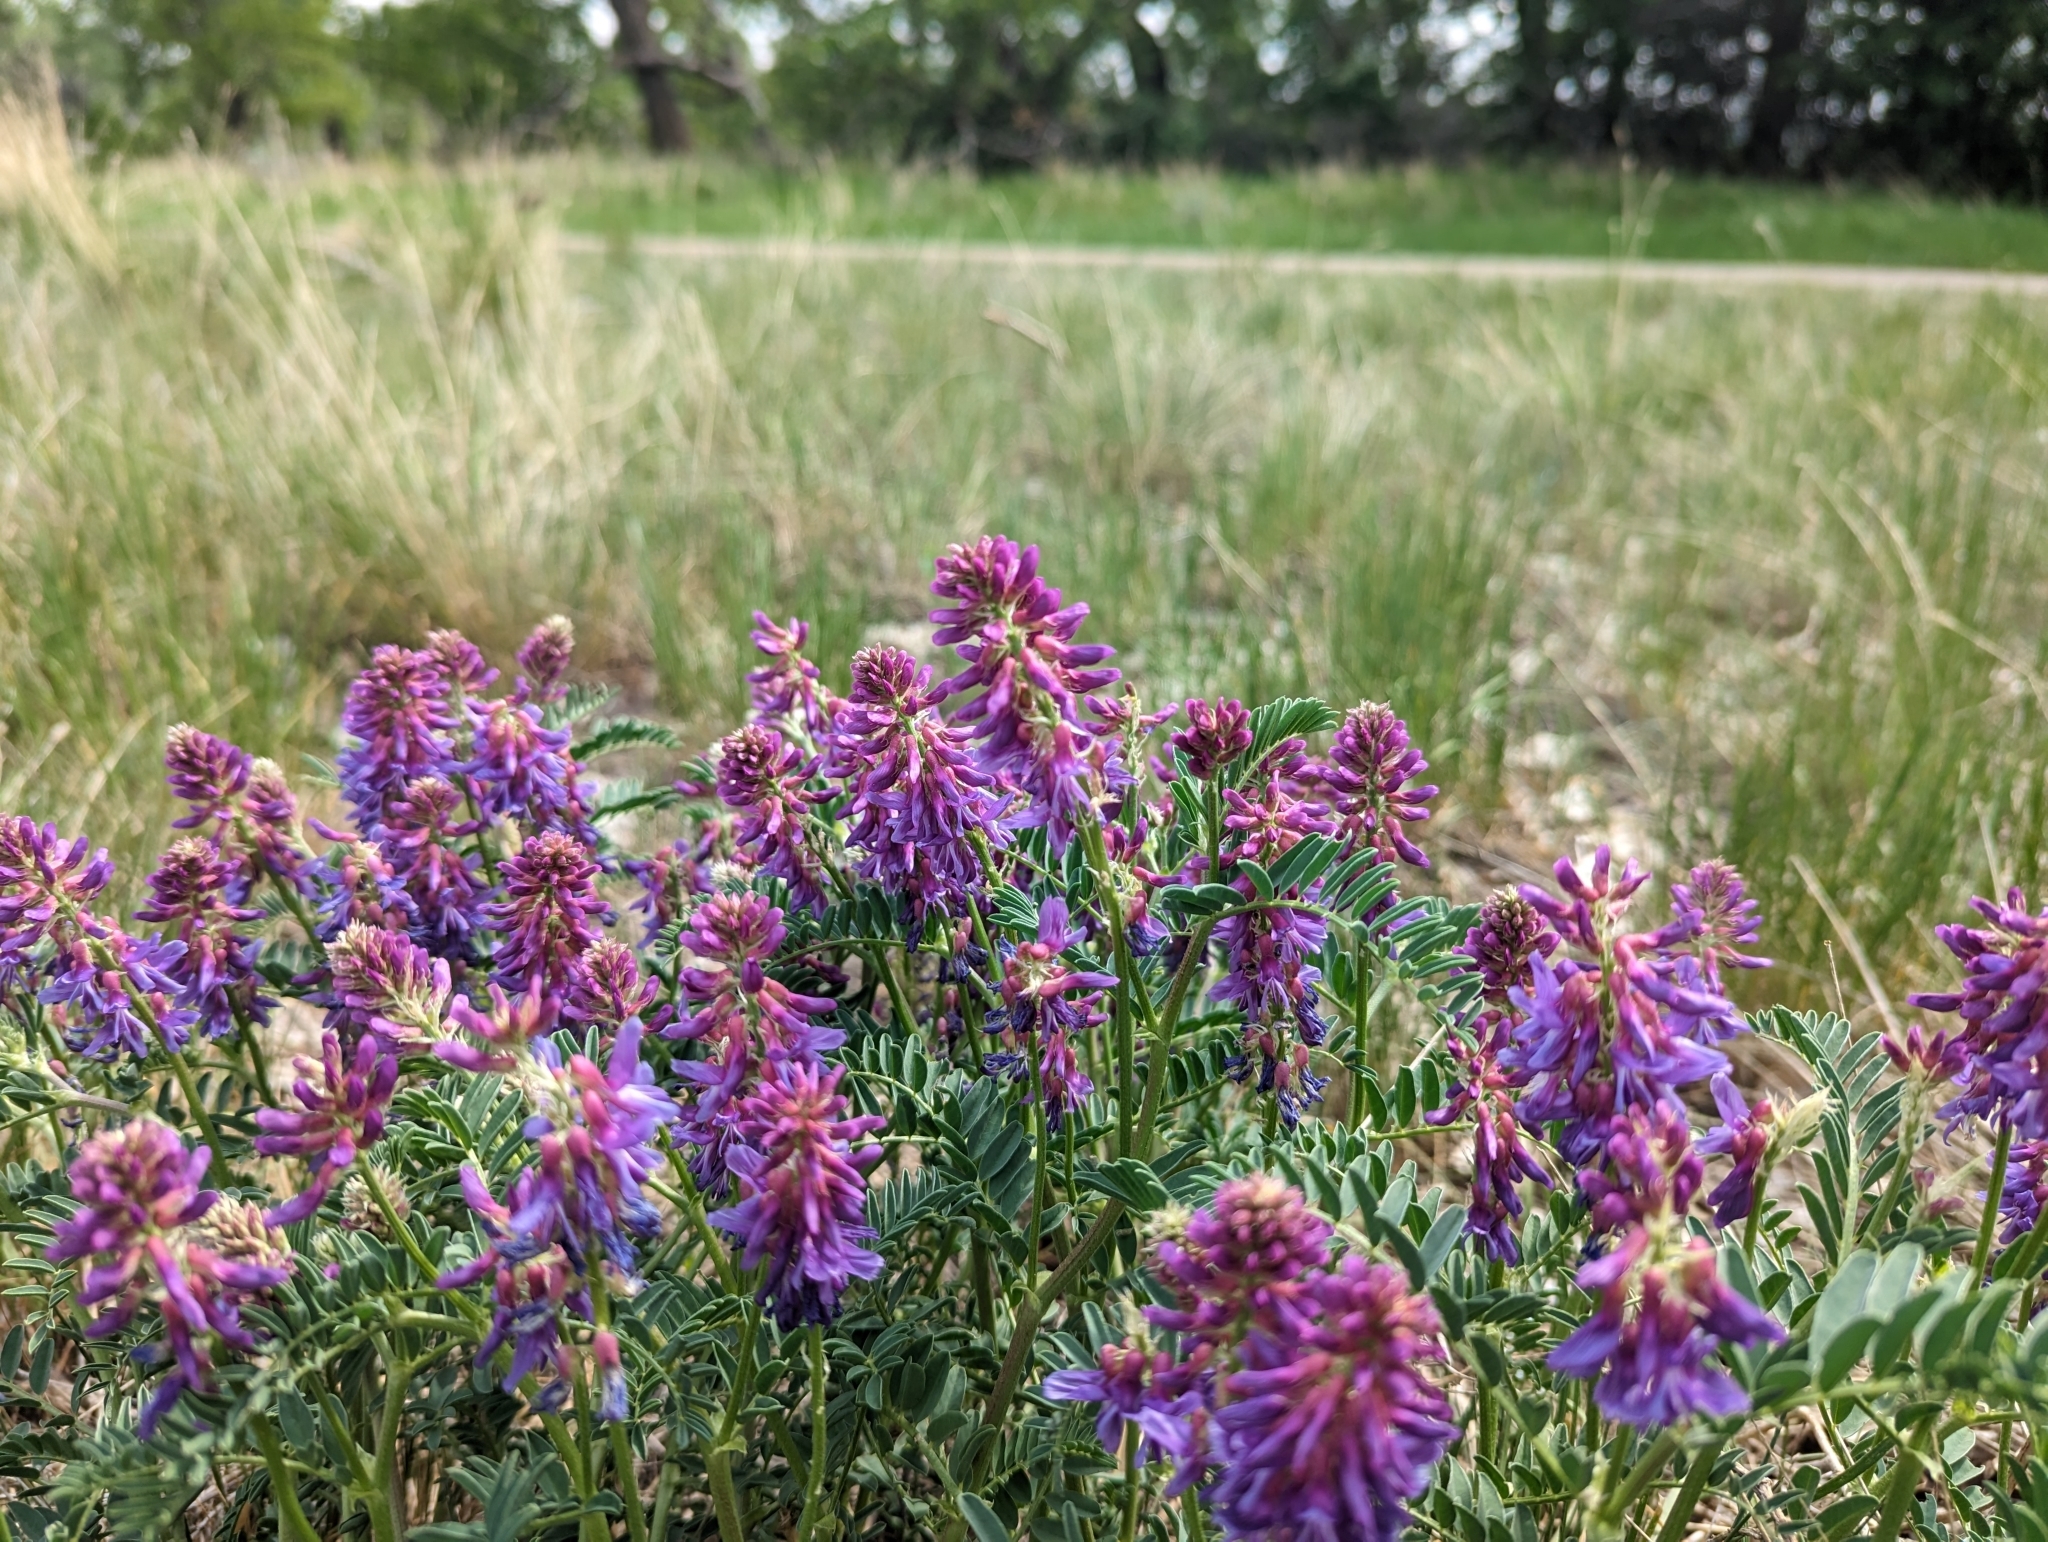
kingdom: Plantae
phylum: Tracheophyta
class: Magnoliopsida
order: Fabales
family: Fabaceae
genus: Astragalus
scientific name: Astragalus bisulcatus
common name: Two-groove milk-vetch
